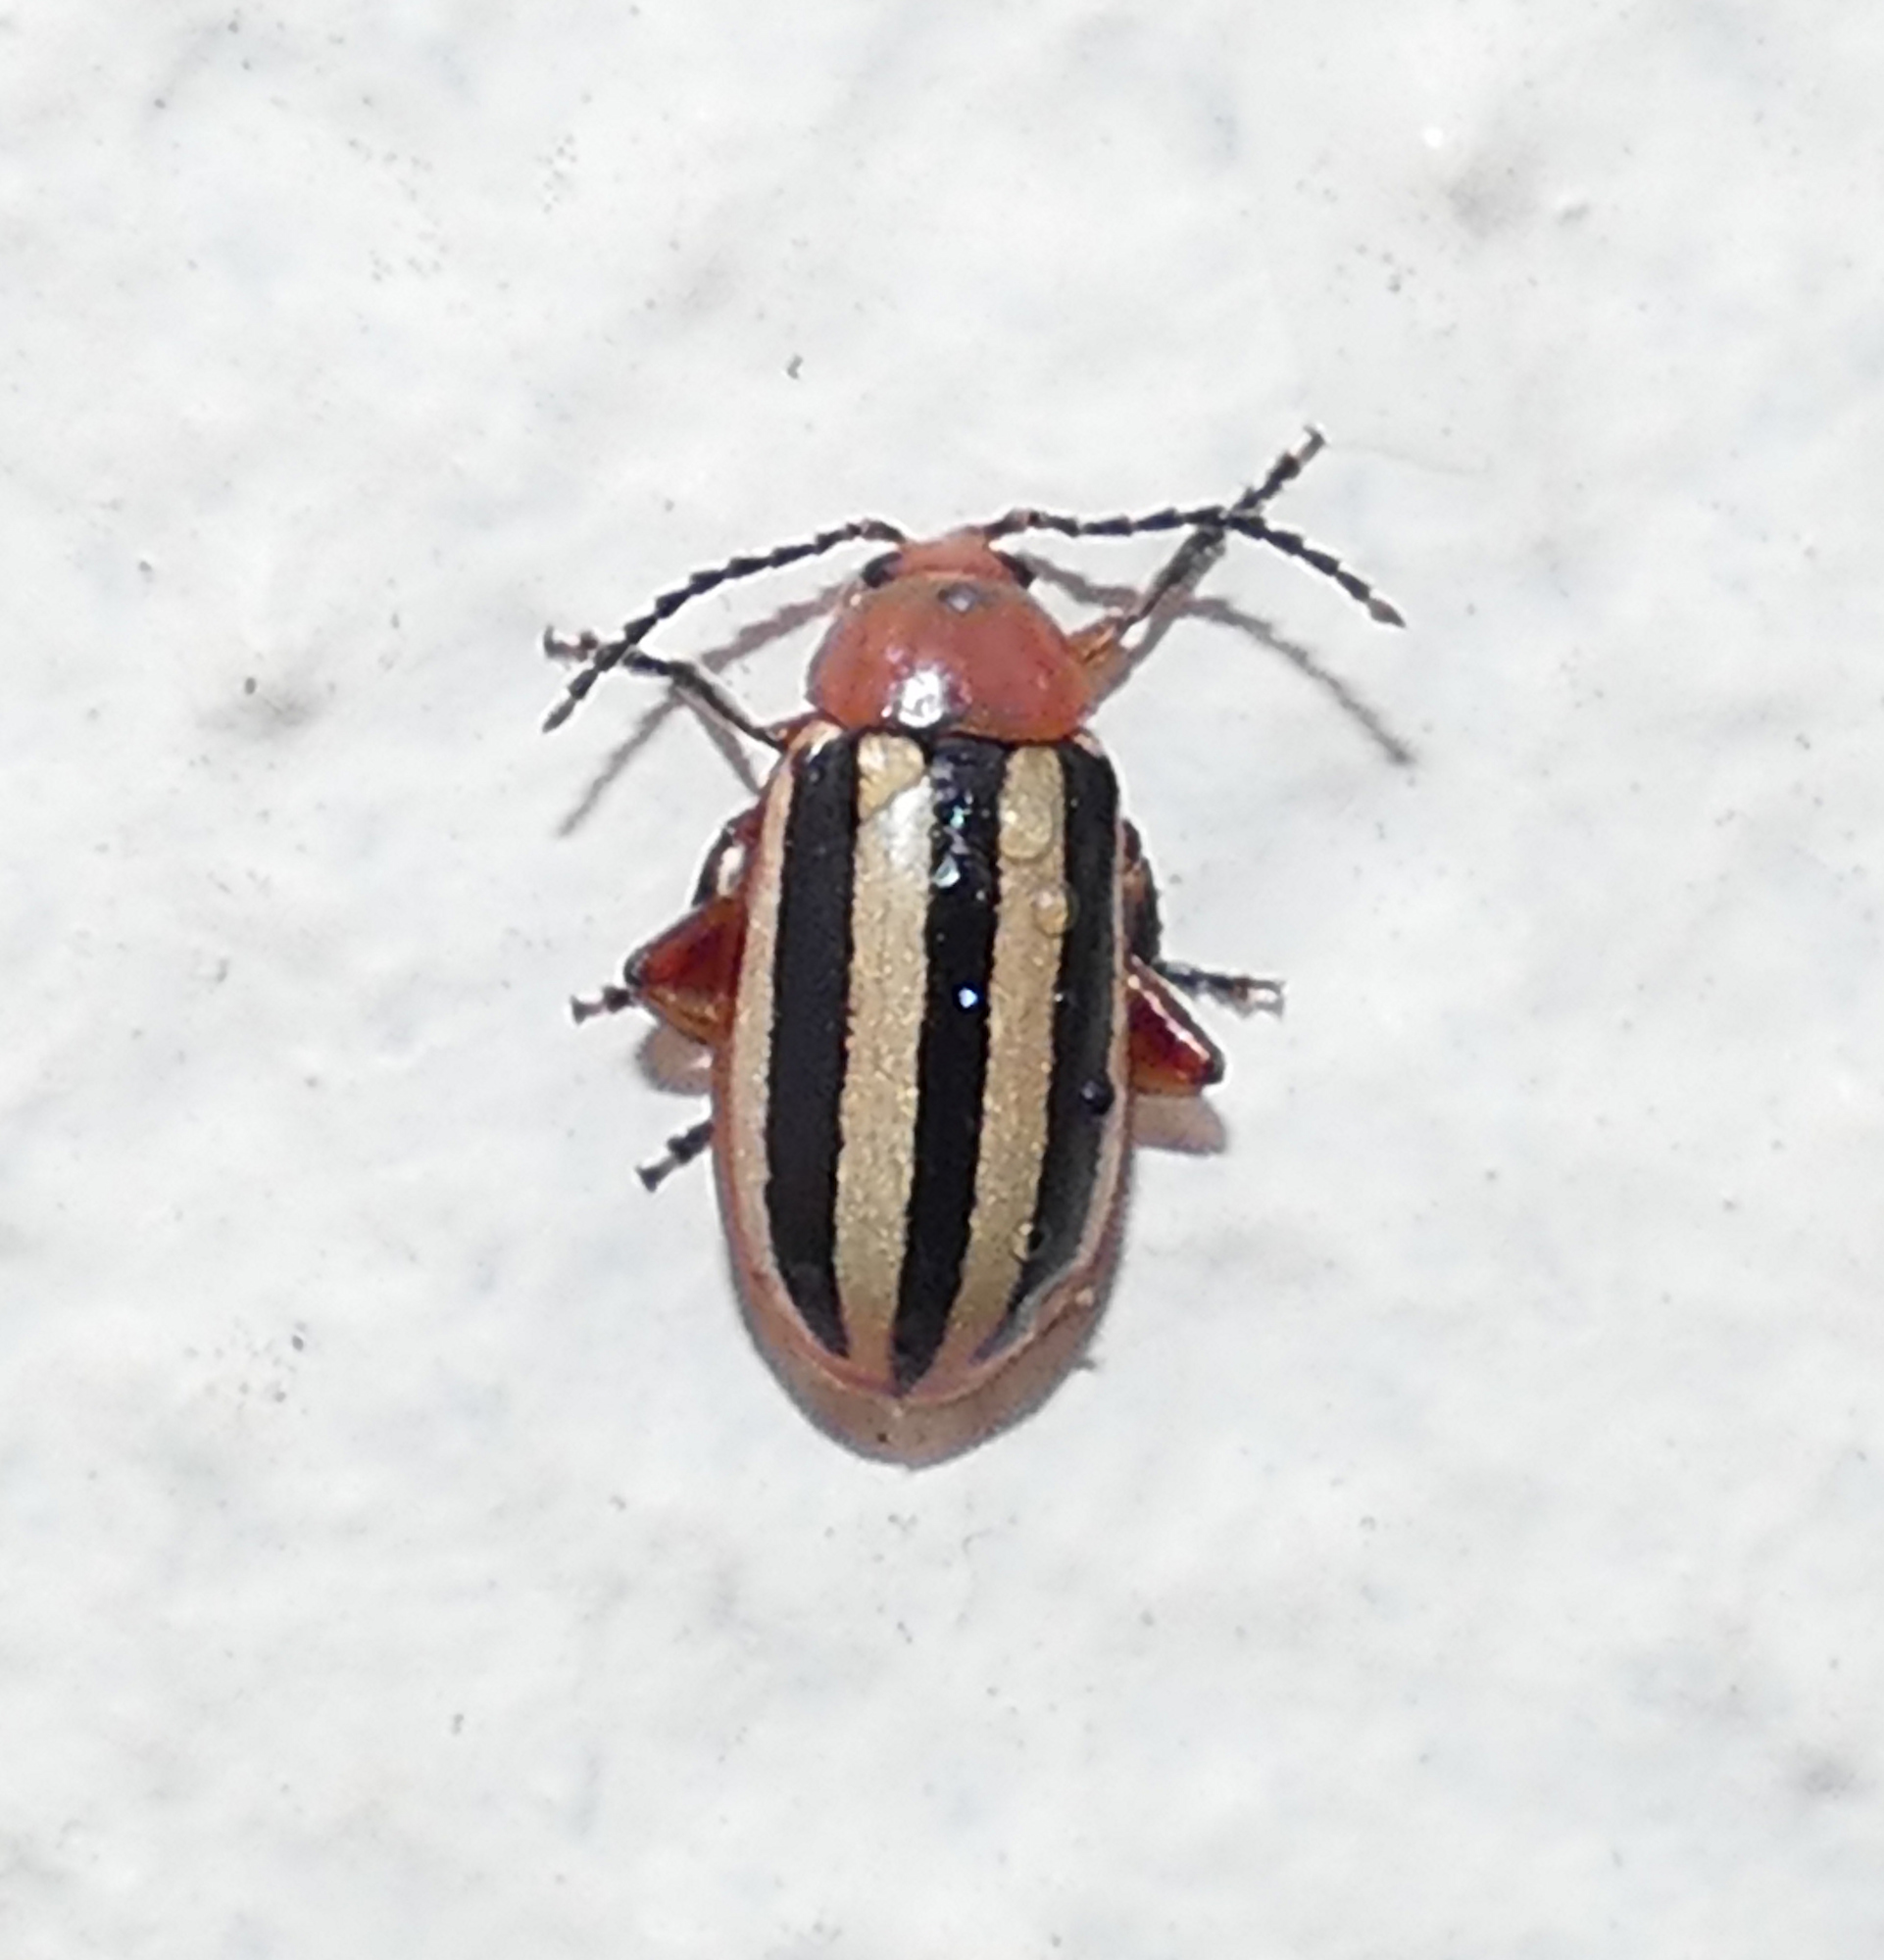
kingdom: Animalia
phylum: Arthropoda
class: Insecta
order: Coleoptera
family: Chrysomelidae
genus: Disonycha
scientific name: Disonycha leptolineata
